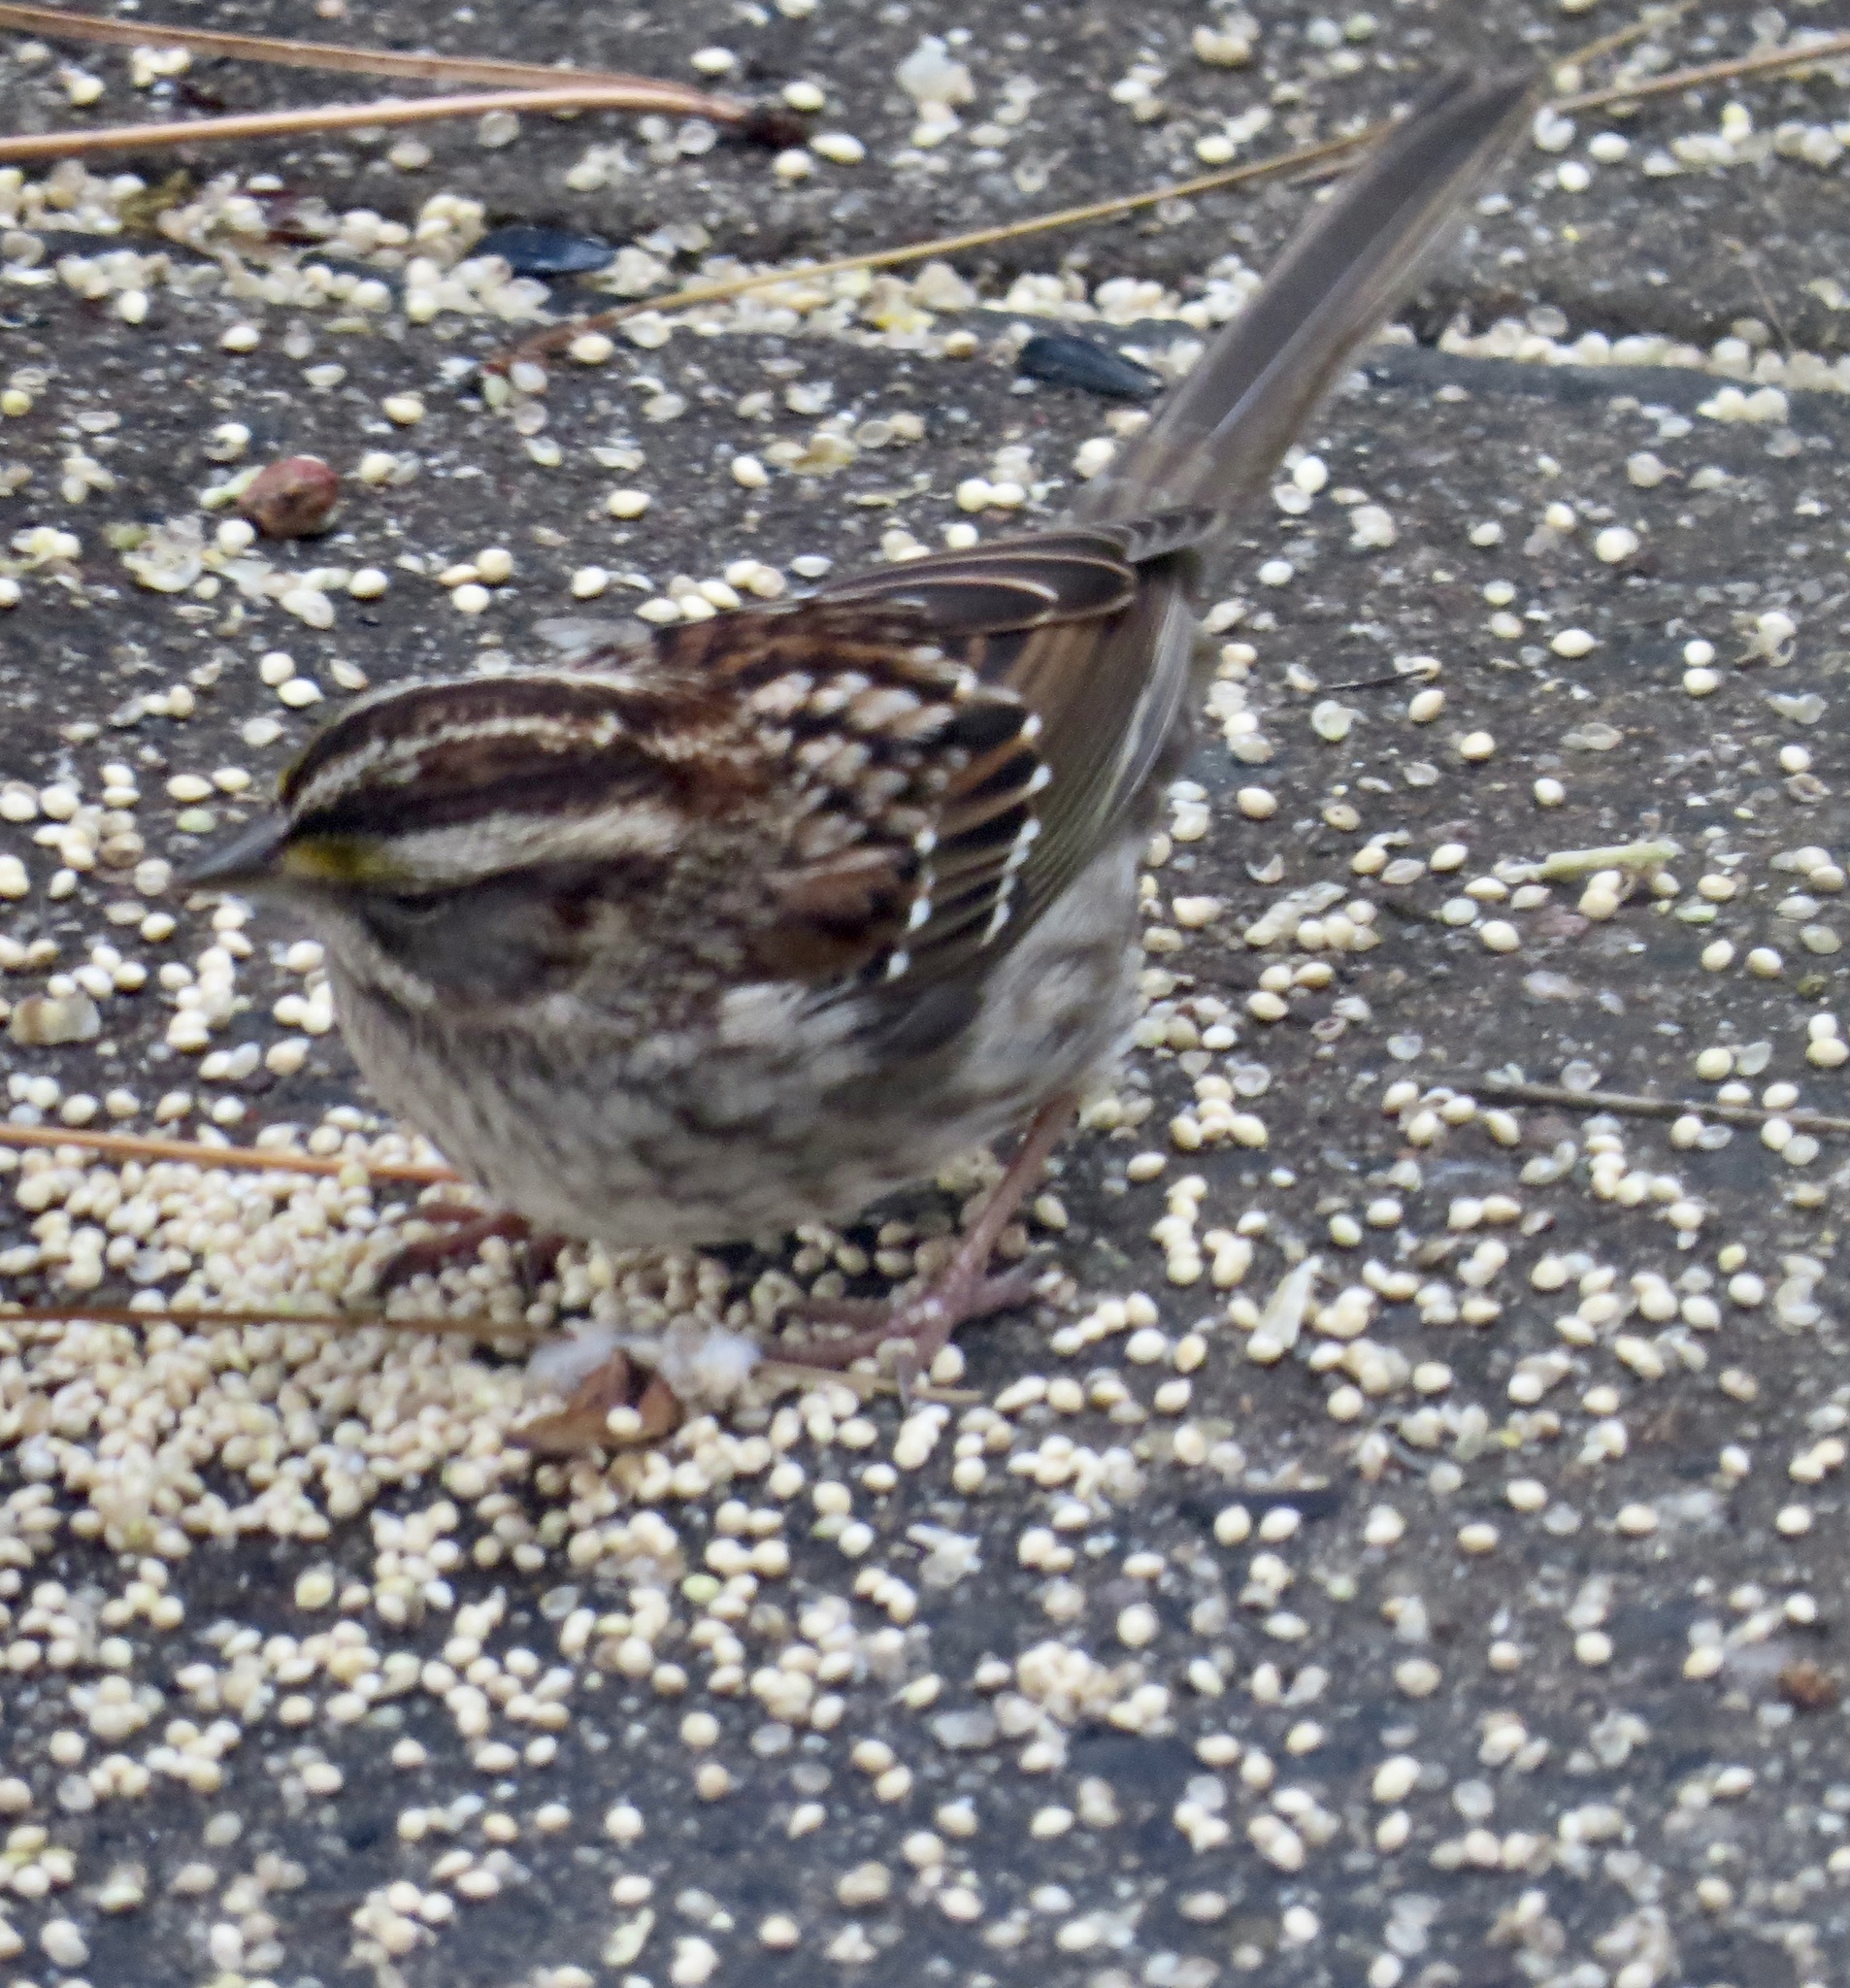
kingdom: Animalia
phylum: Chordata
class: Aves
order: Passeriformes
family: Passerellidae
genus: Zonotrichia
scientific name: Zonotrichia albicollis
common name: White-throated sparrow
